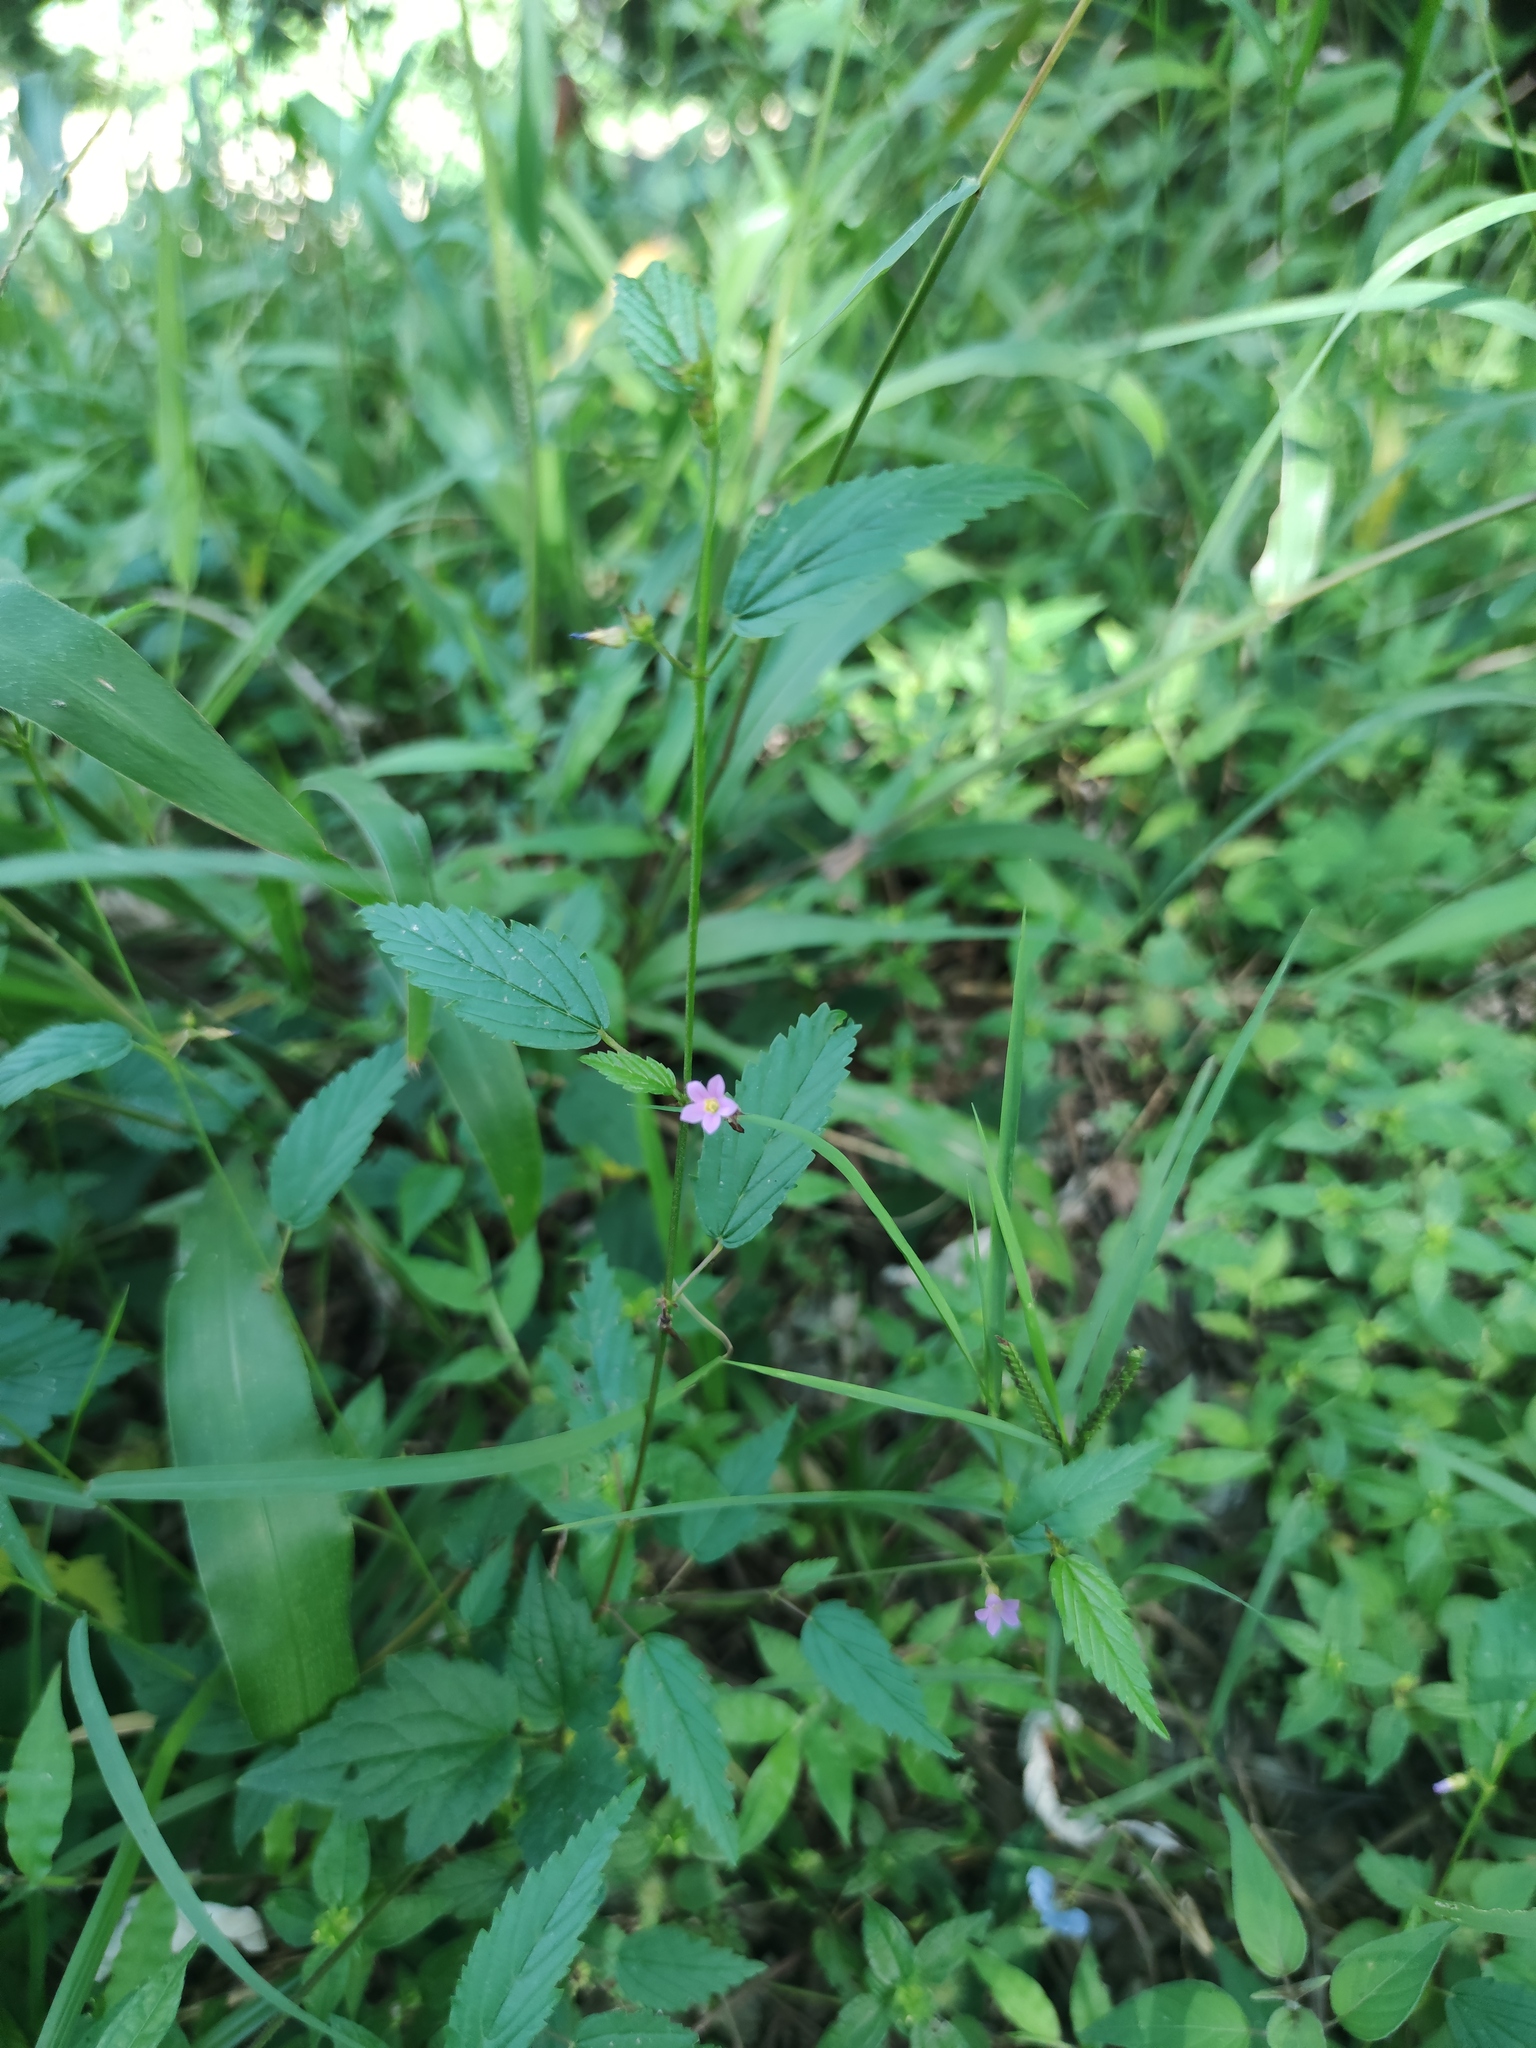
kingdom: Plantae
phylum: Tracheophyta
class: Magnoliopsida
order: Malvales
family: Malvaceae
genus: Melochia
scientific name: Melochia pyramidata
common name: Pyramidflower
